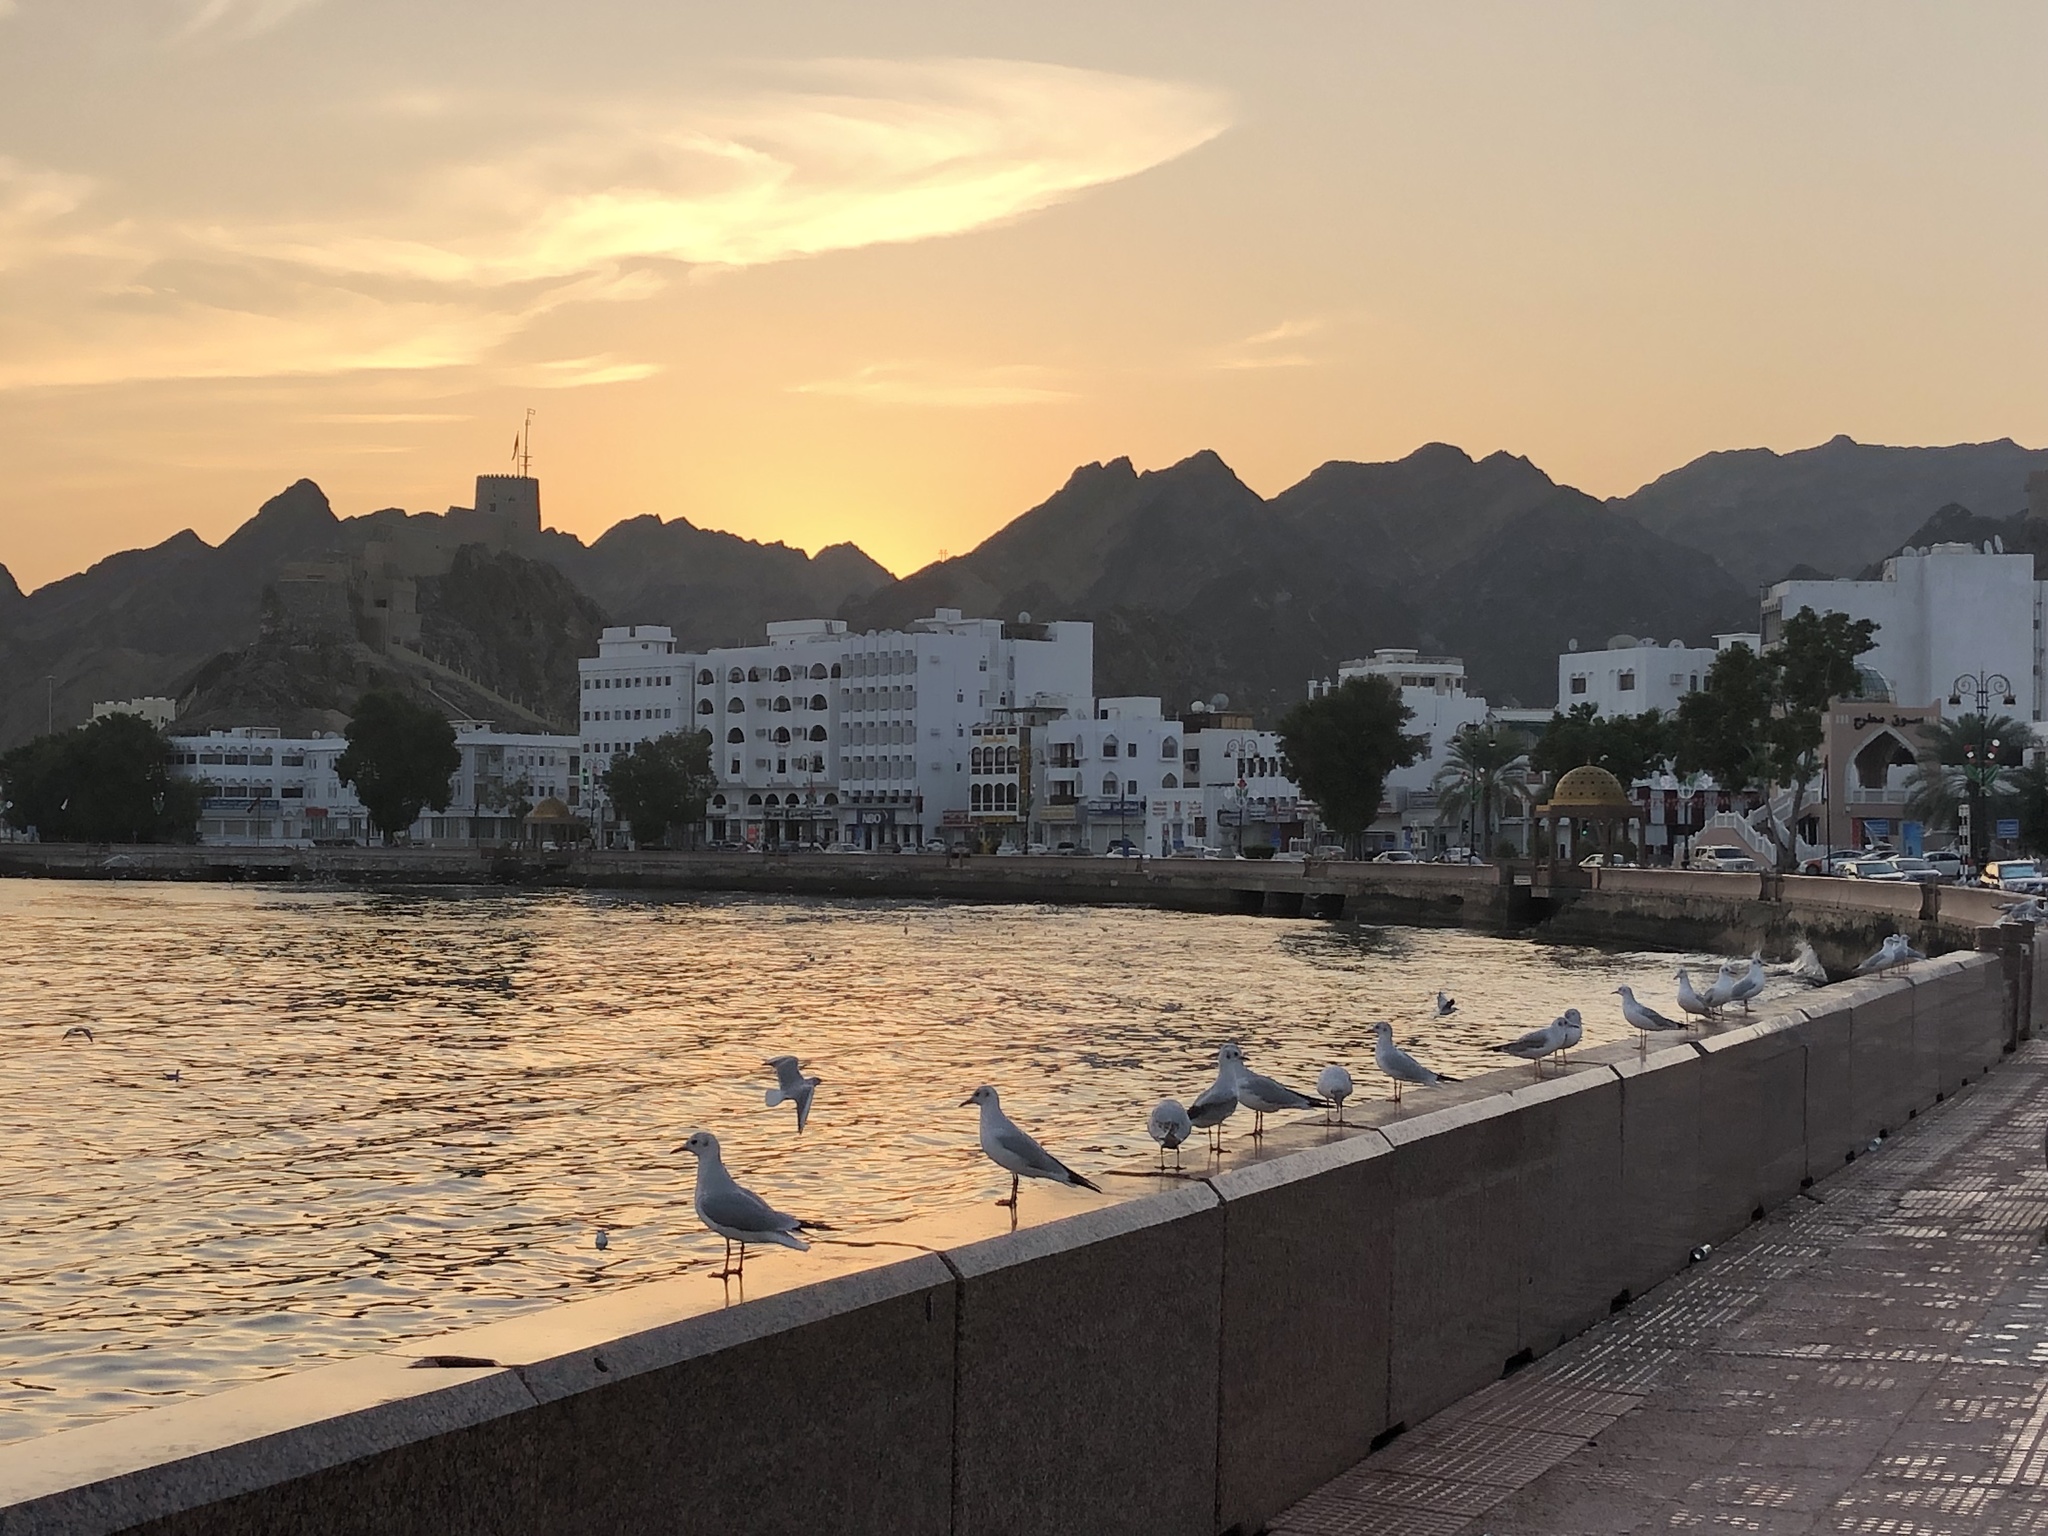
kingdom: Animalia
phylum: Chordata
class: Aves
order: Charadriiformes
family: Laridae
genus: Chroicocephalus
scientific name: Chroicocephalus ridibundus
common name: Black-headed gull
